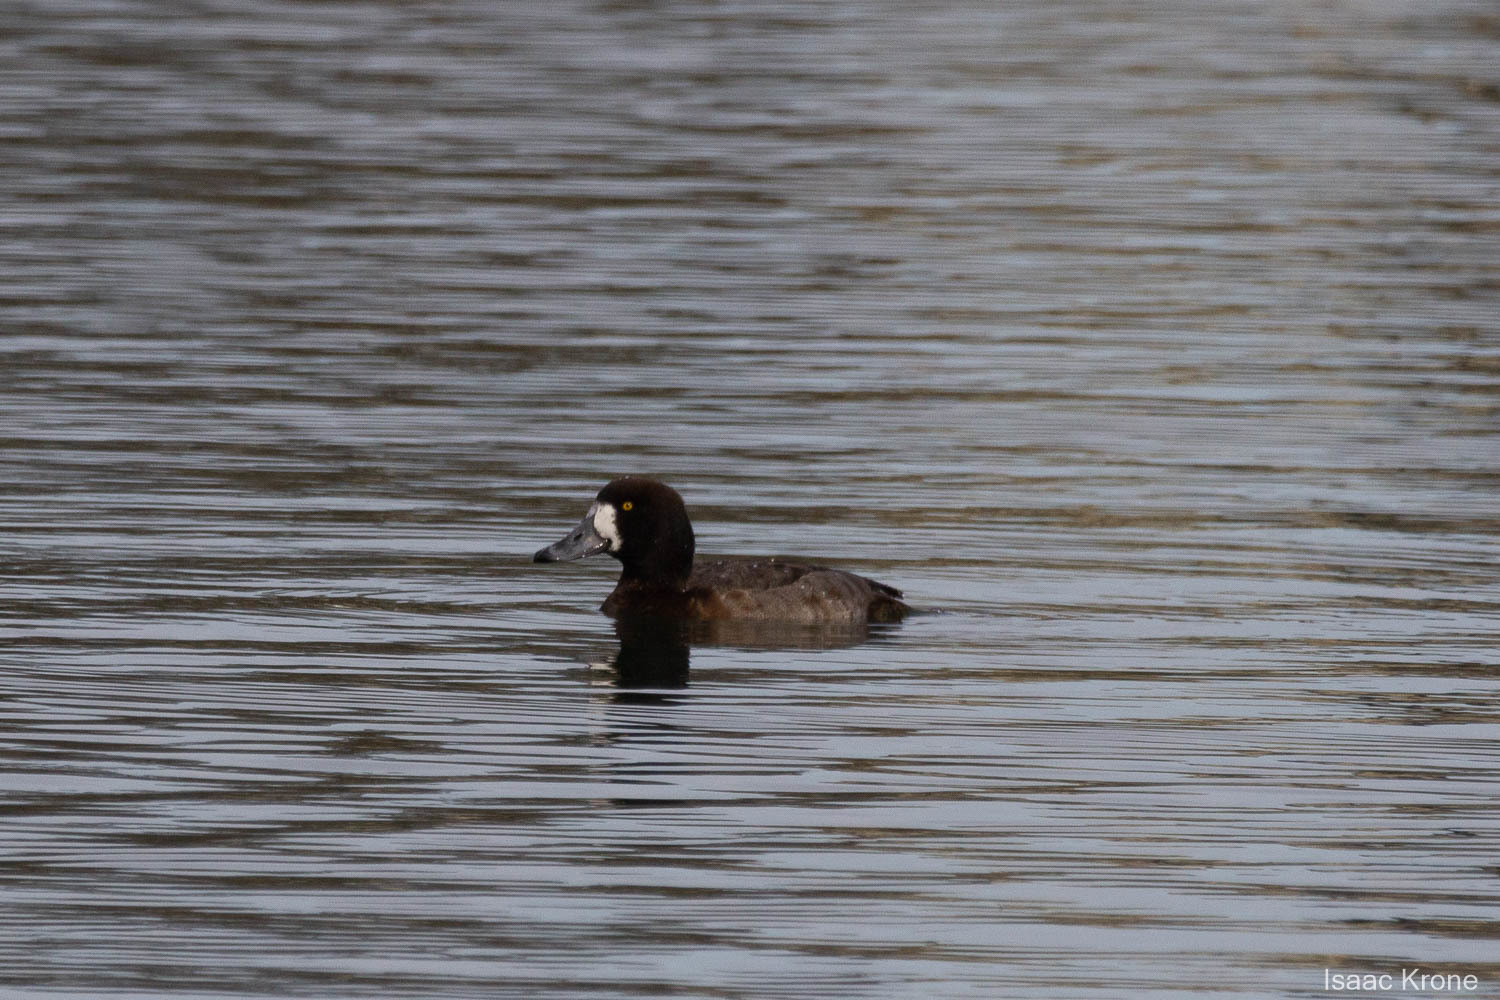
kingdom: Animalia
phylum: Chordata
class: Aves
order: Anseriformes
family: Anatidae
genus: Aythya
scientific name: Aythya marila
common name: Greater scaup
